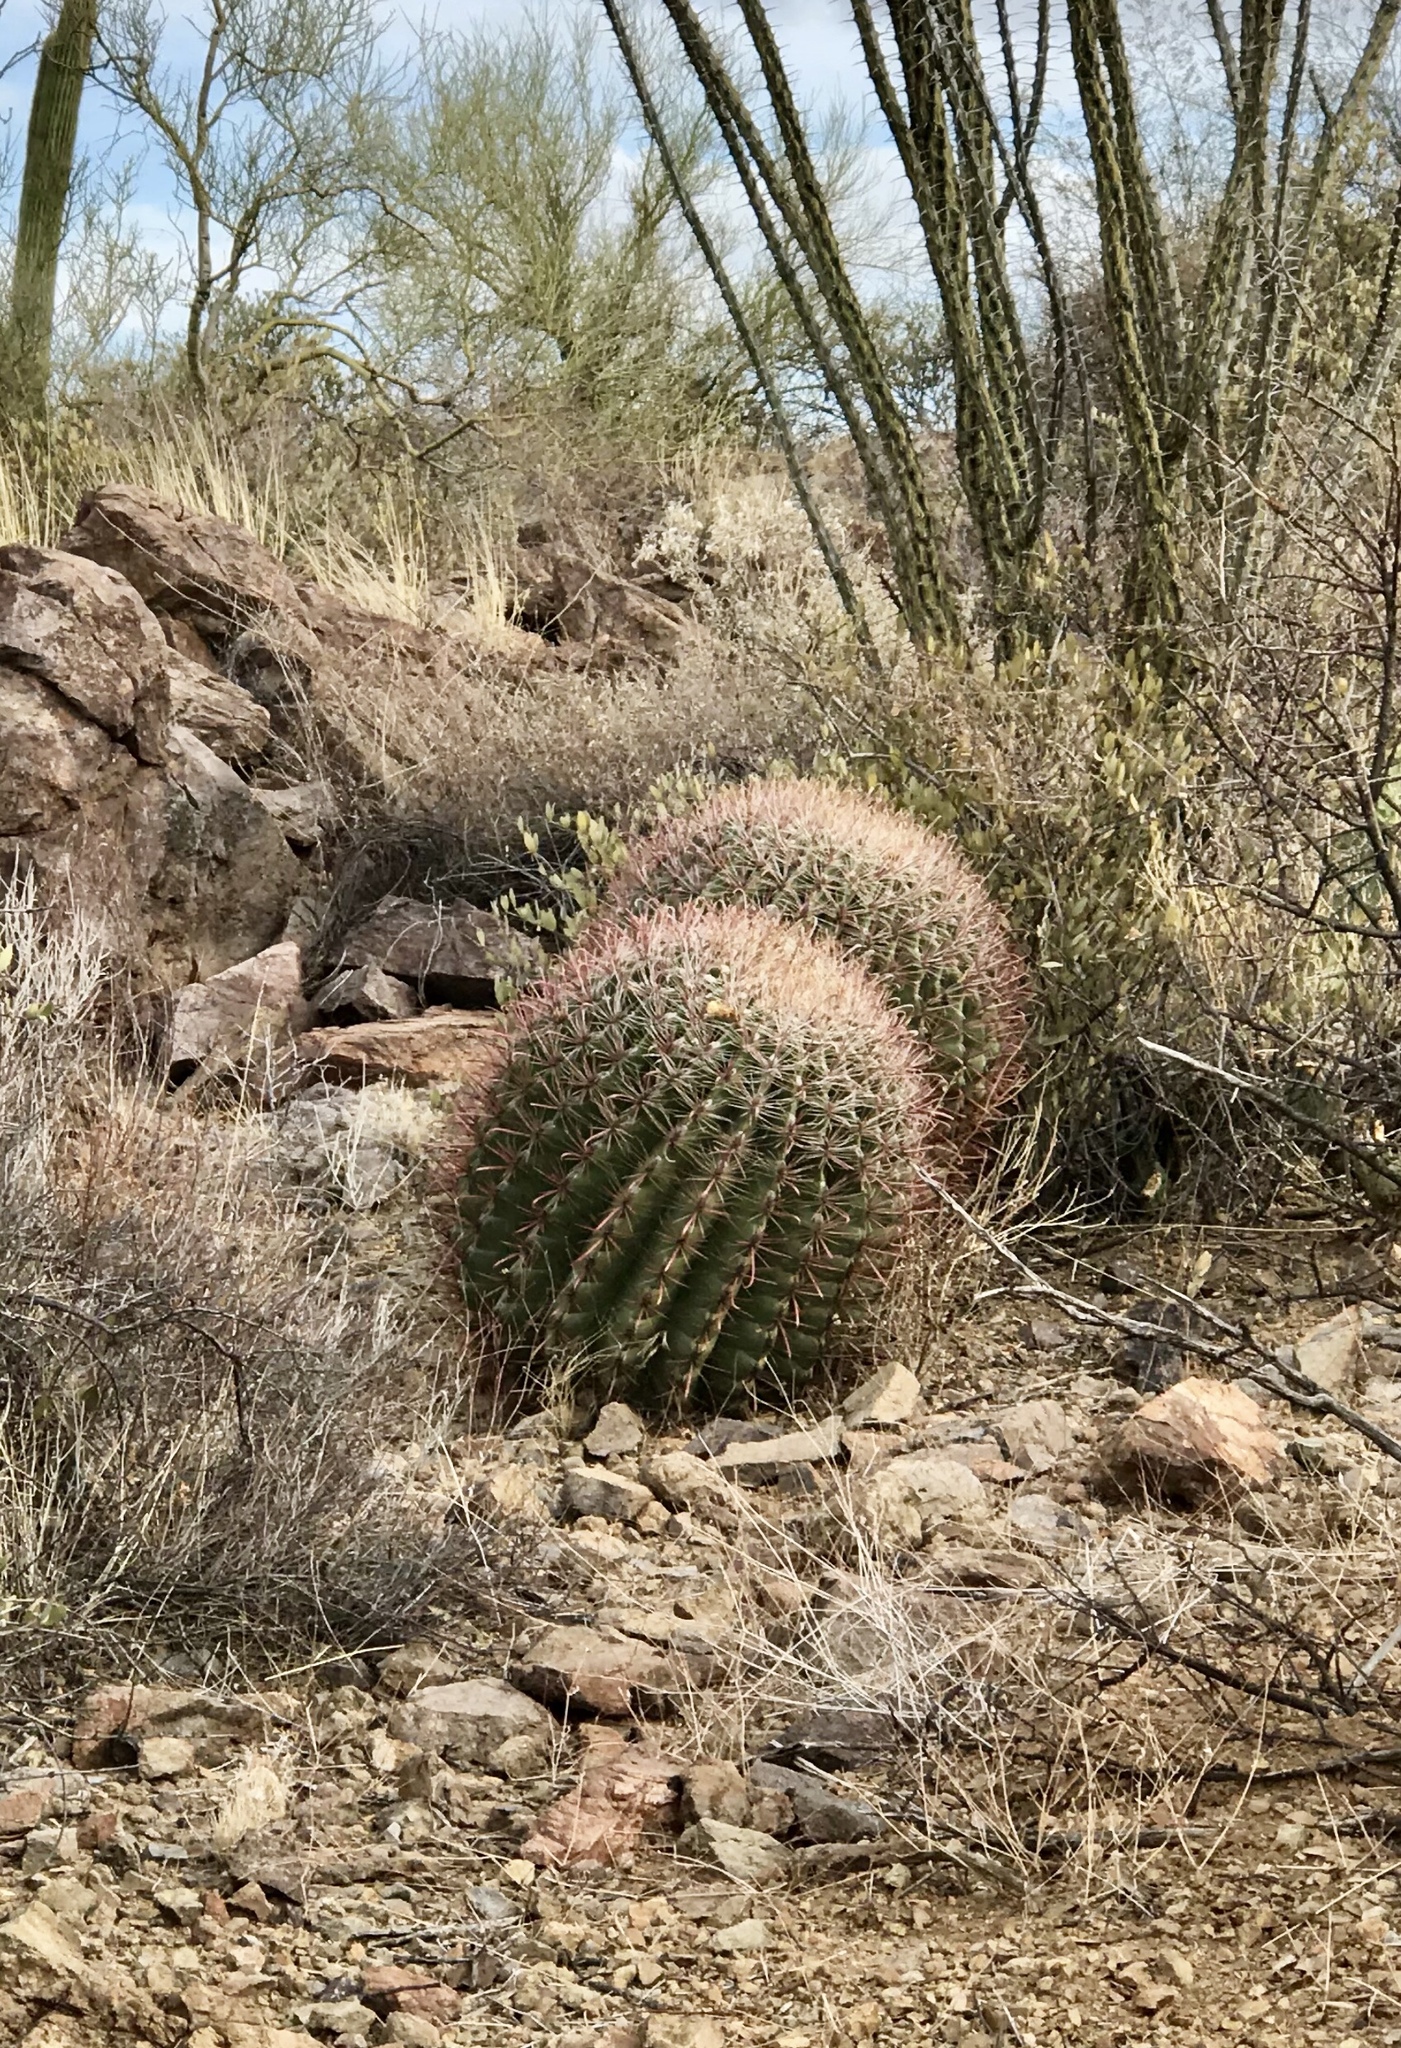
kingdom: Plantae
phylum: Tracheophyta
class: Magnoliopsida
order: Caryophyllales
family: Cactaceae
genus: Ferocactus
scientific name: Ferocactus wislizeni
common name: Candy barrel cactus
